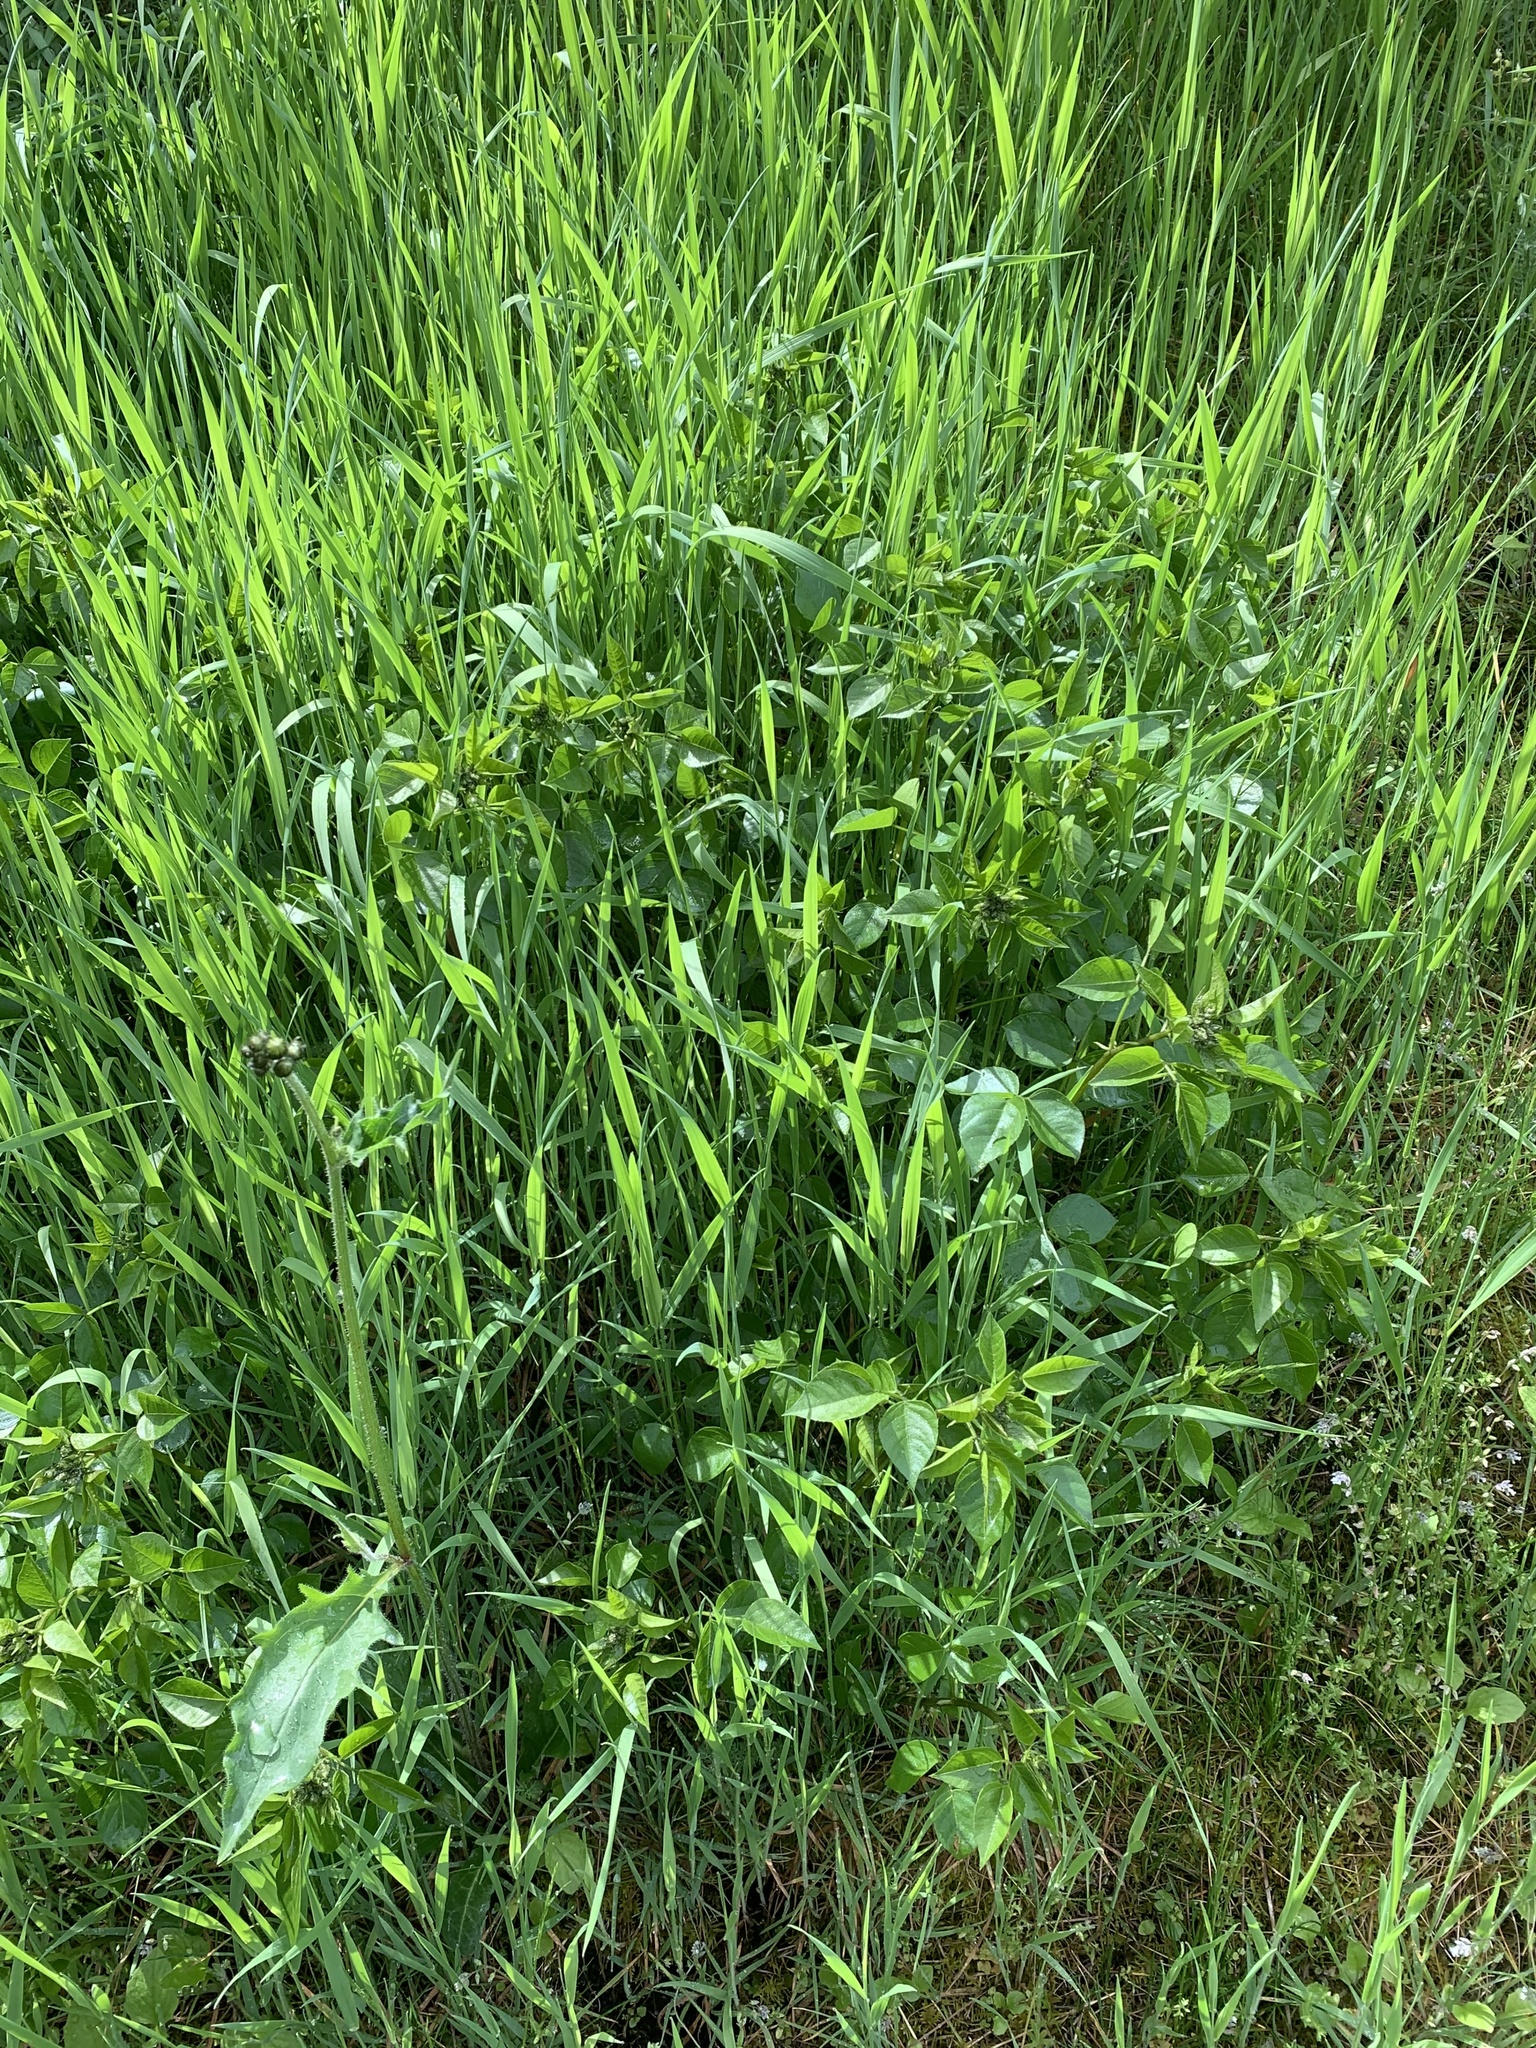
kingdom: Plantae
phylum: Tracheophyta
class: Magnoliopsida
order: Fabales
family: Fabaceae
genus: Rupertia
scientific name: Rupertia physodes
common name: California-tea
